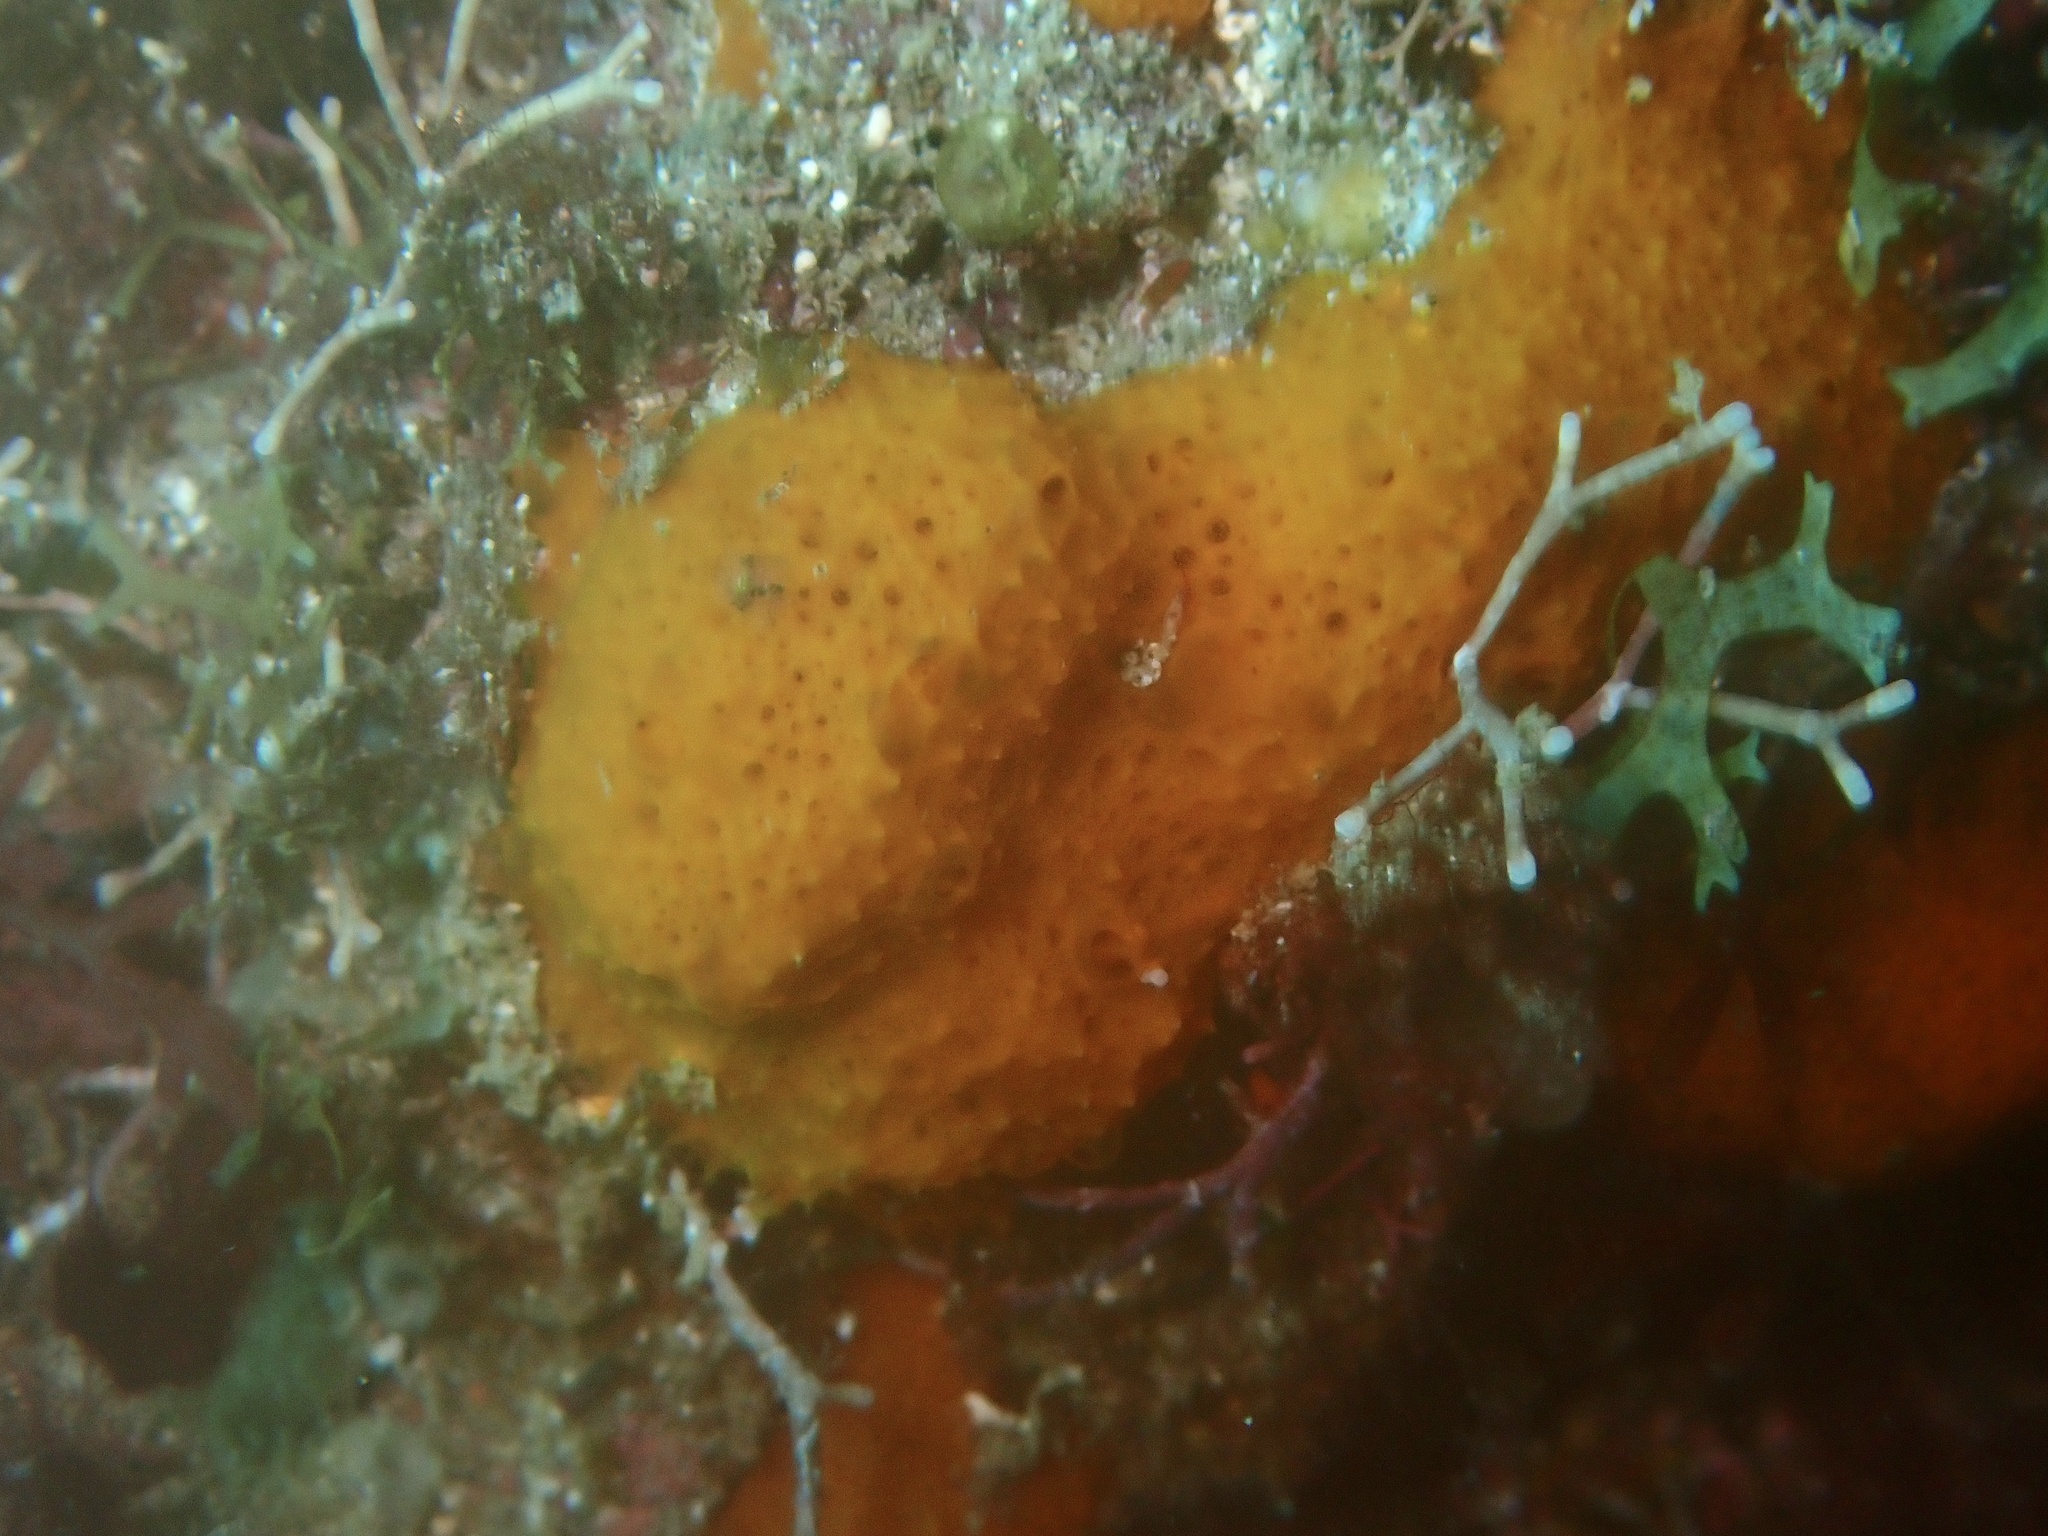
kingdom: Animalia
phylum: Porifera
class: Demospongiae
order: Scopalinida
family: Scopalinidae
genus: Scopalina
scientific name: Scopalina canariensis
